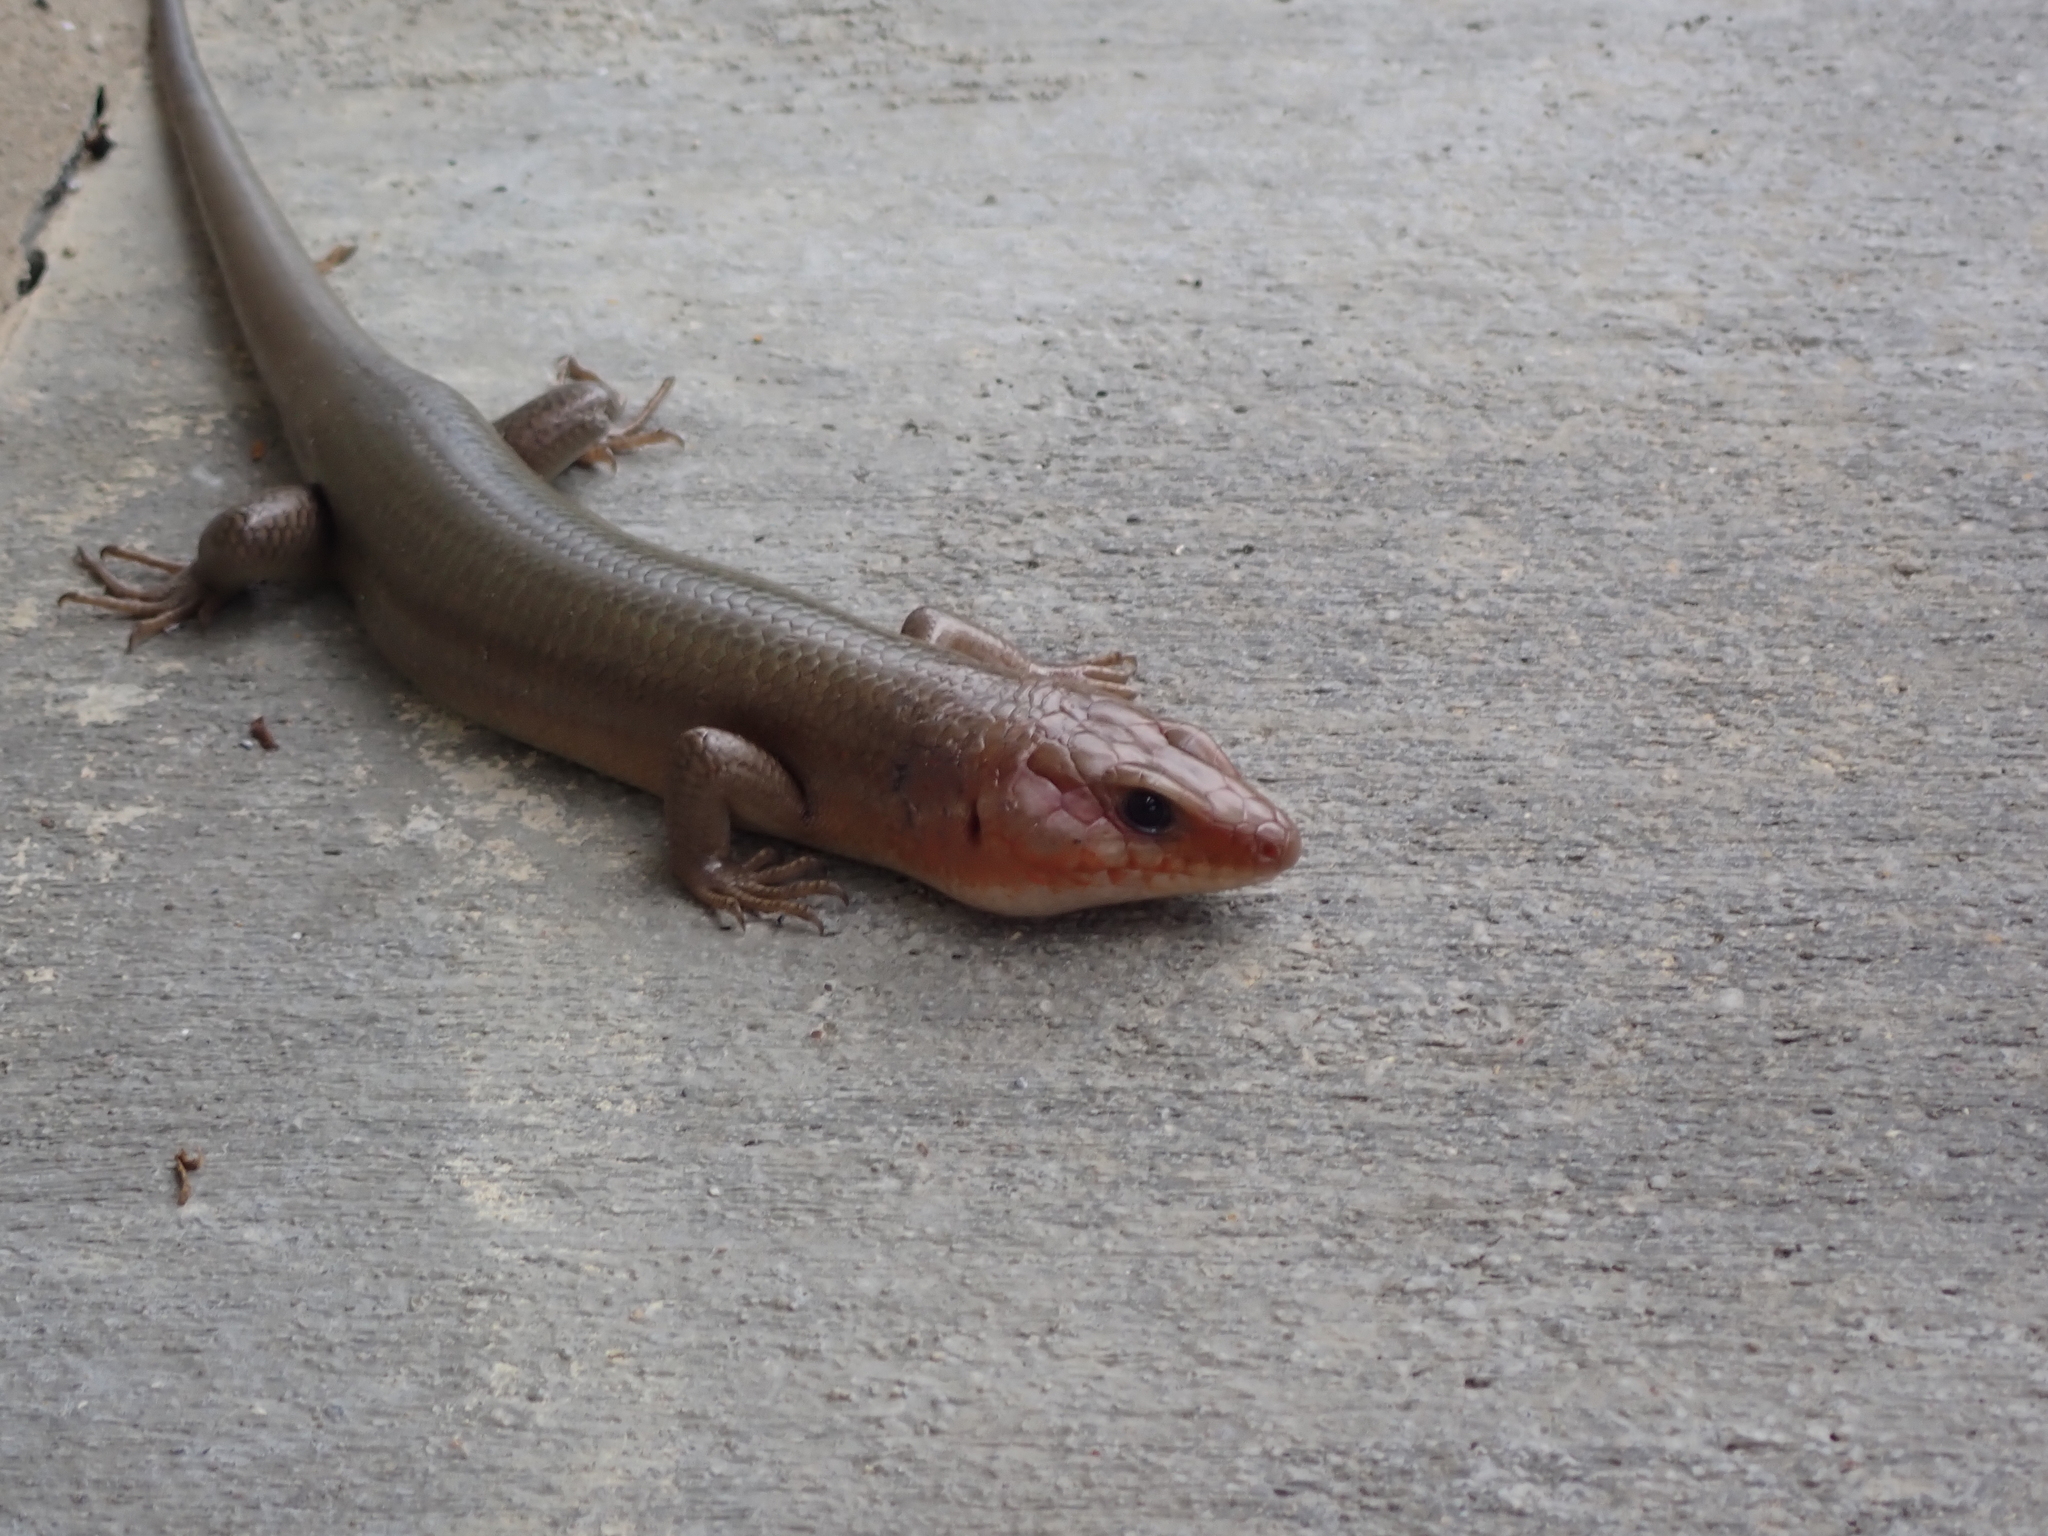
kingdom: Animalia
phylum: Chordata
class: Squamata
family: Scincidae
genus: Plestiodon
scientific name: Plestiodon laticeps
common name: Broadhead skink
